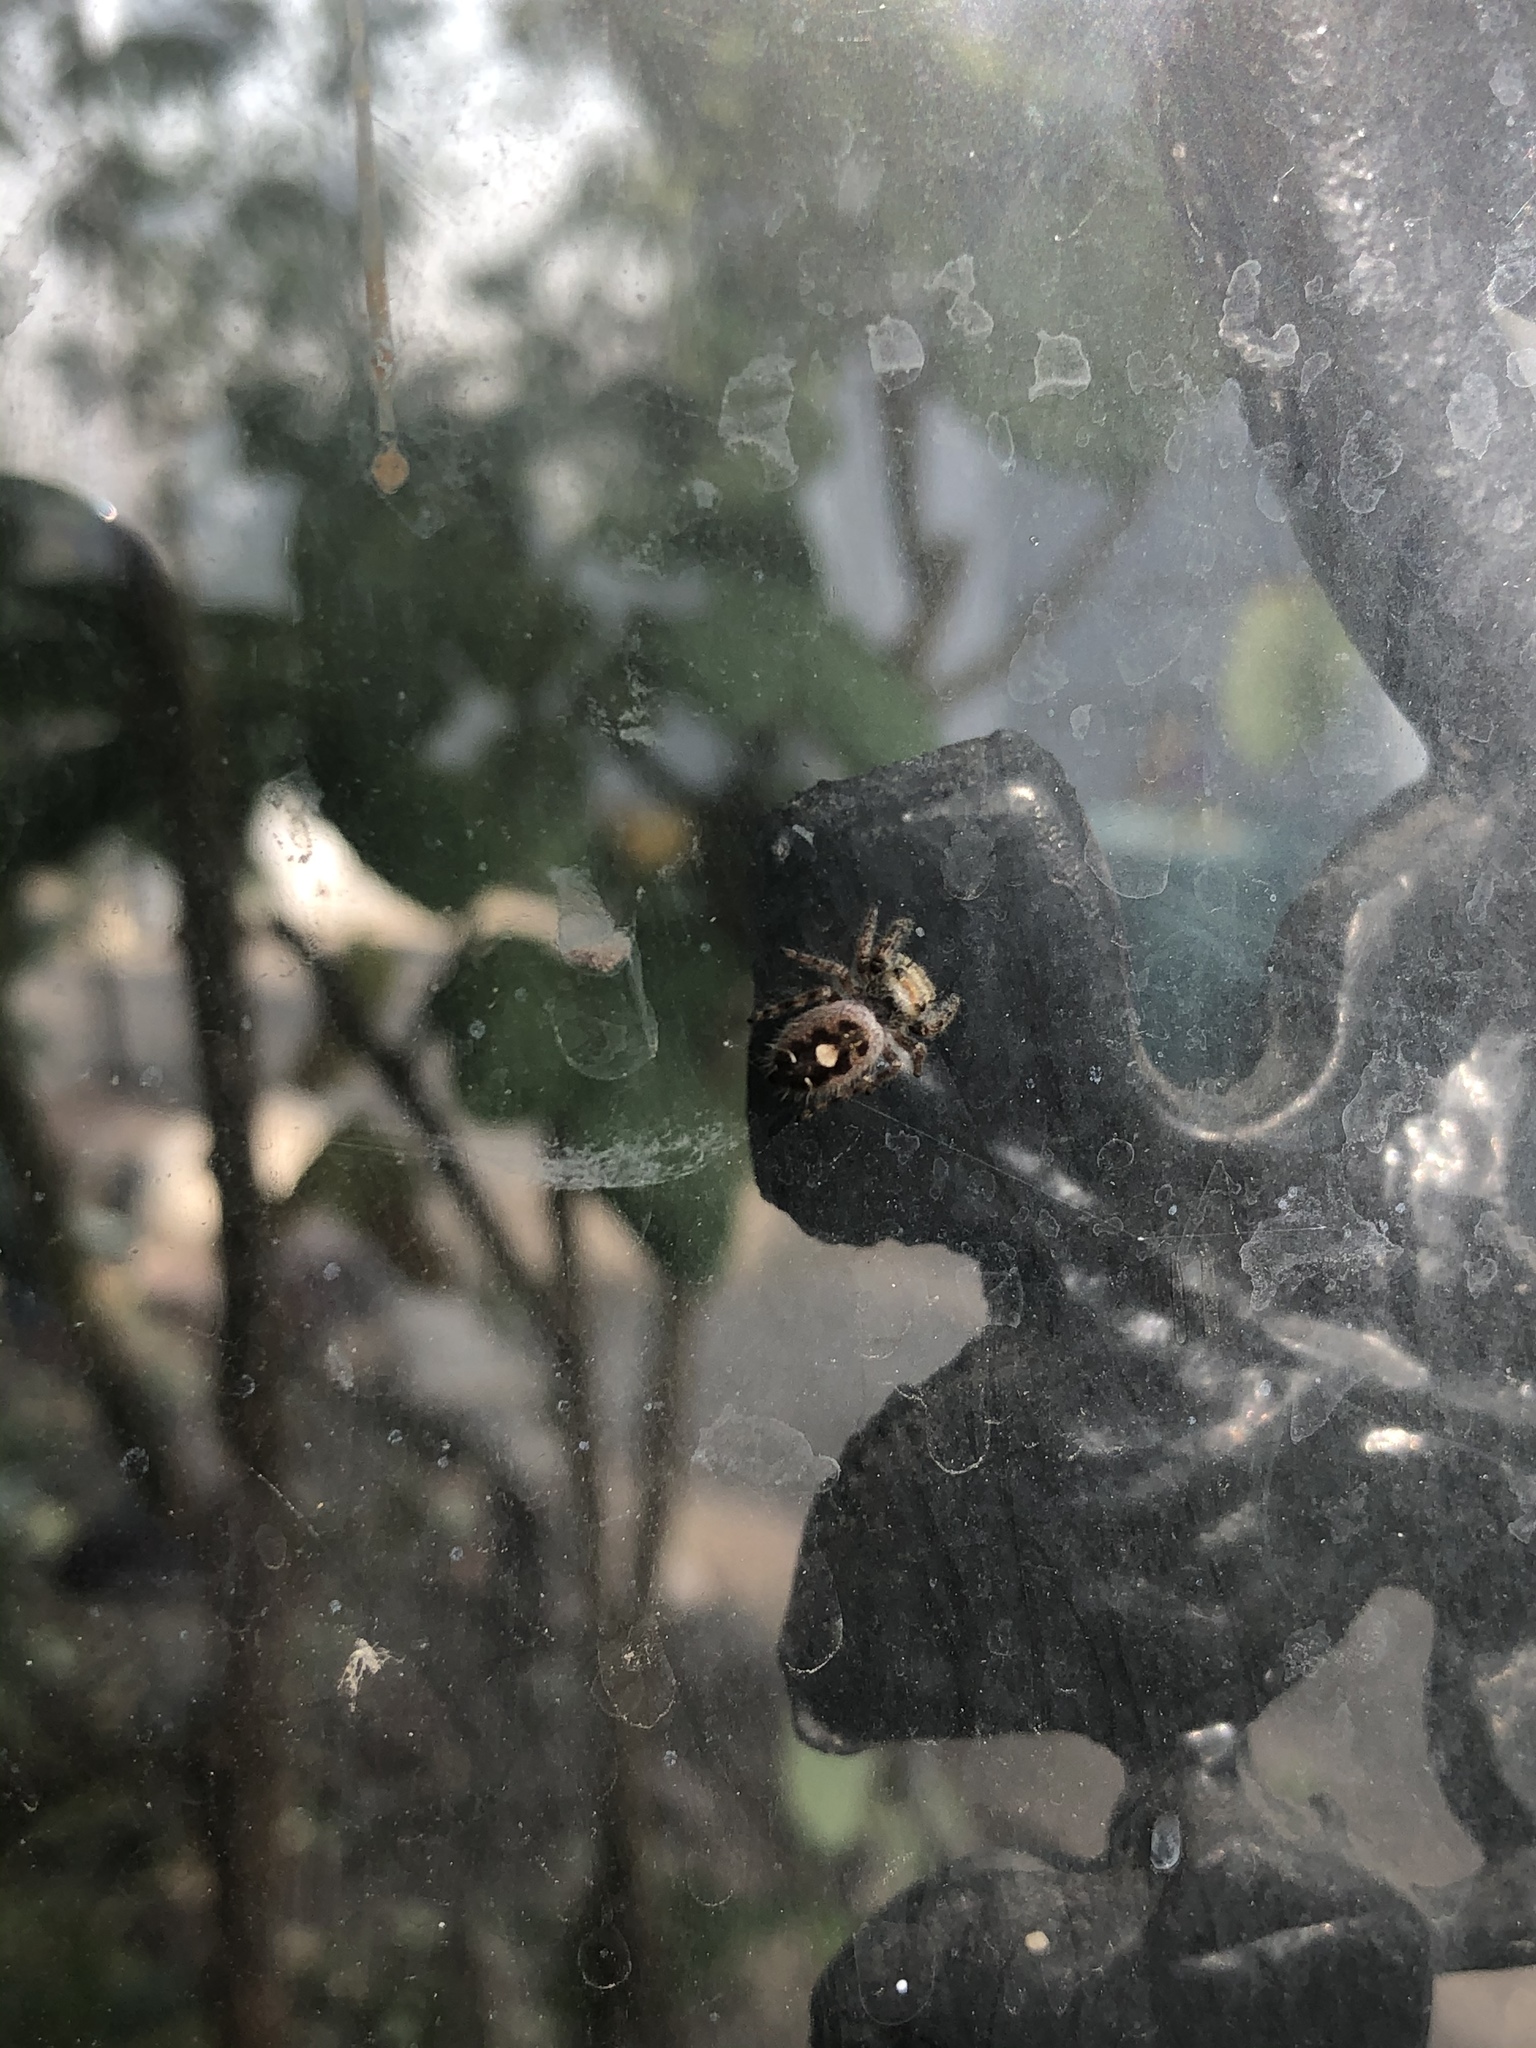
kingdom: Animalia
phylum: Arthropoda
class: Arachnida
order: Araneae
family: Salticidae
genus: Phidippus
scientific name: Phidippus audax
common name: Bold jumper
